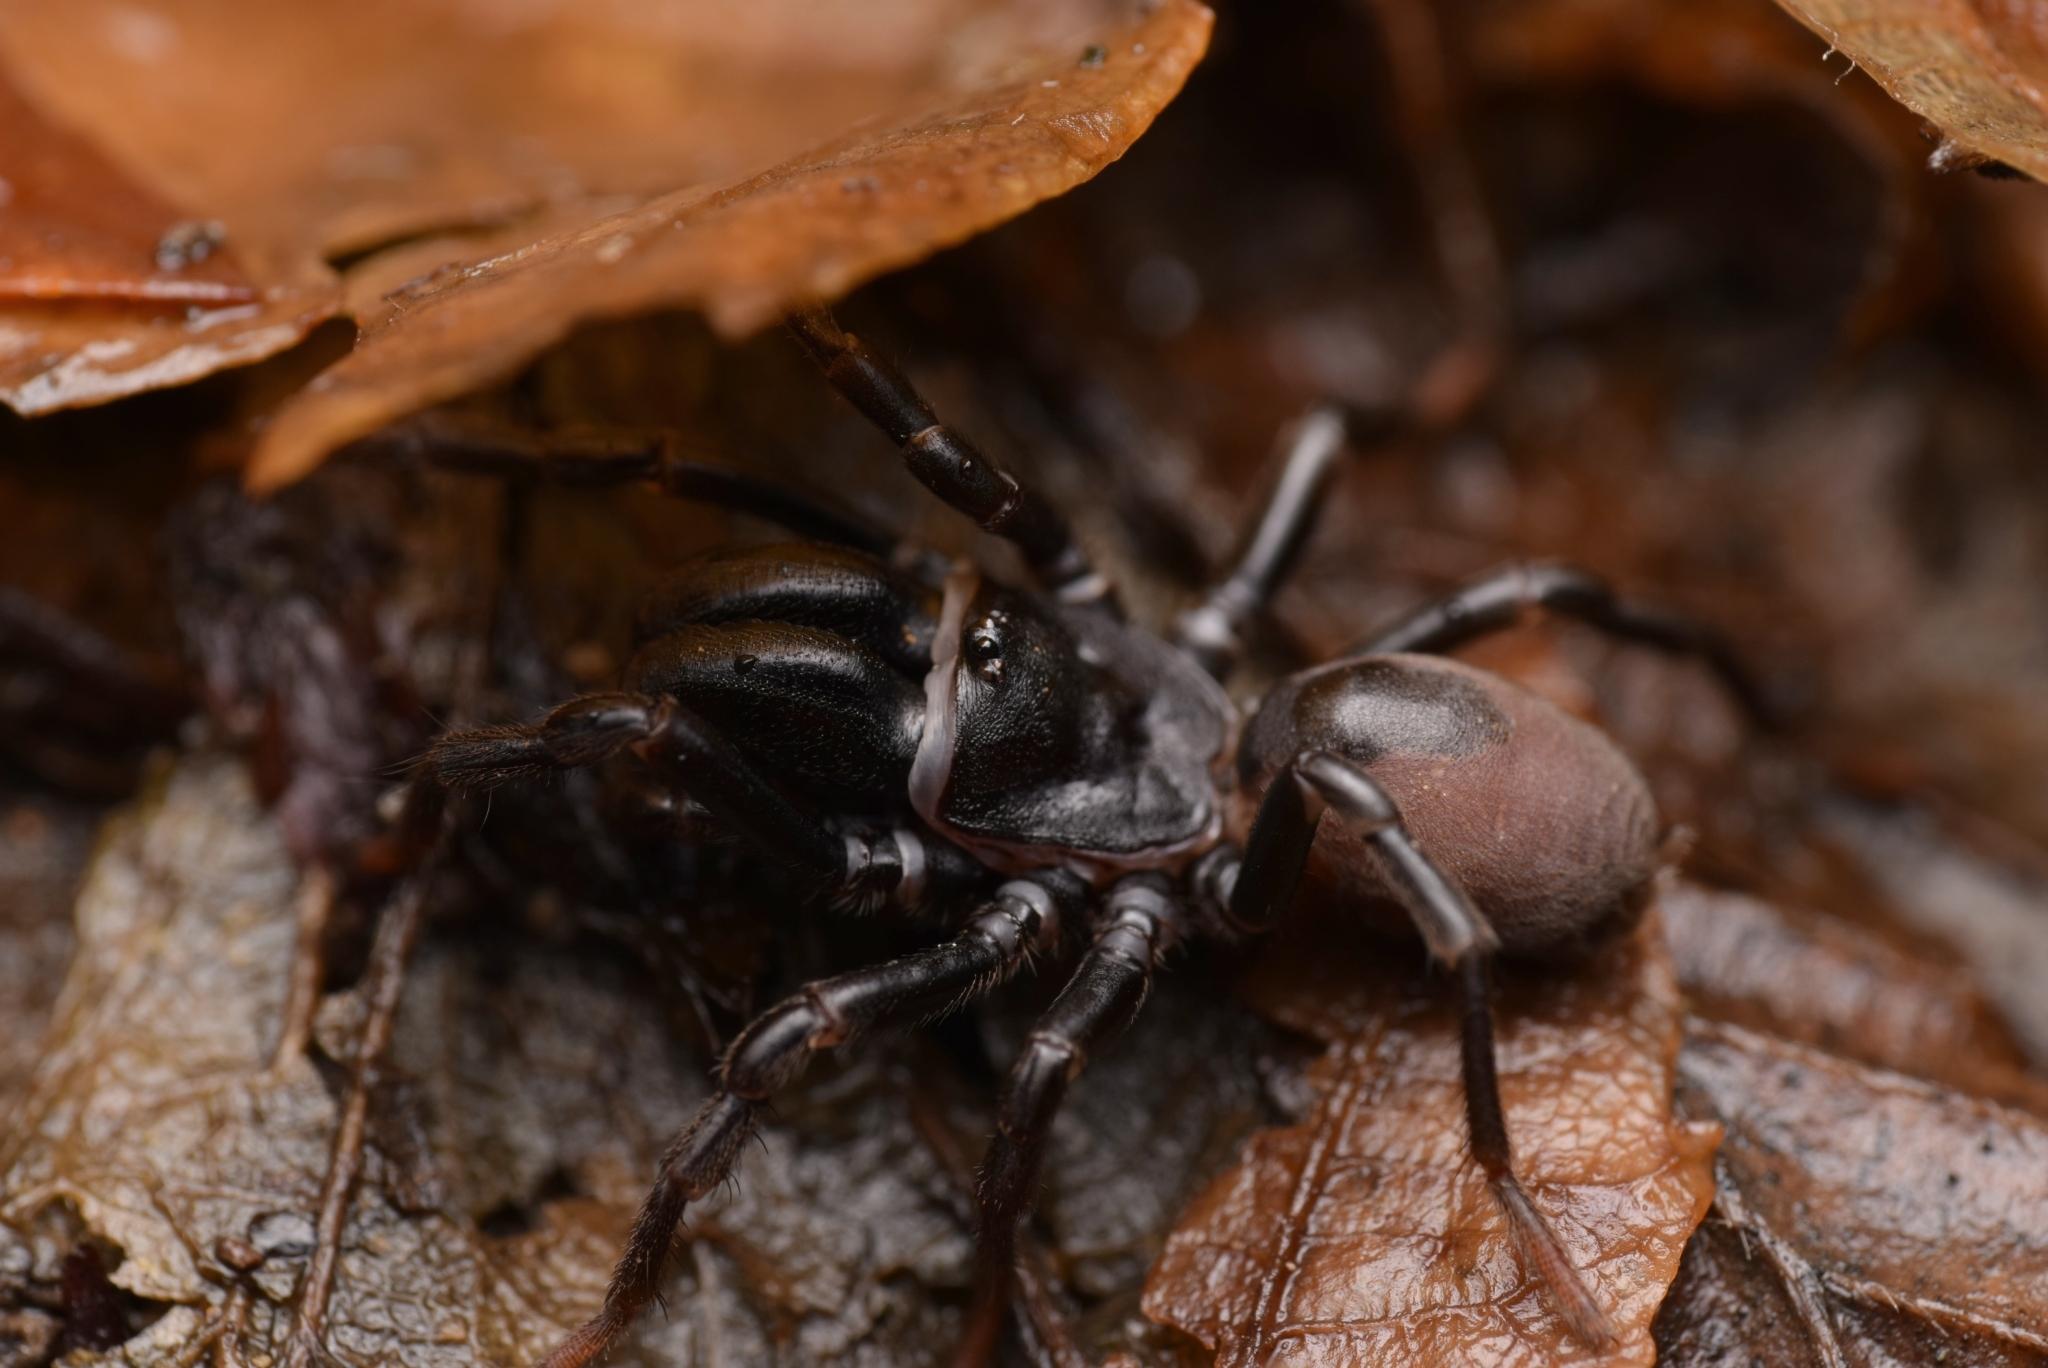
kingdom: Animalia
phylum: Arthropoda
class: Arachnida
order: Araneae
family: Atypidae
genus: Atypus
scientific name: Atypus affinis
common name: Purse web spider
